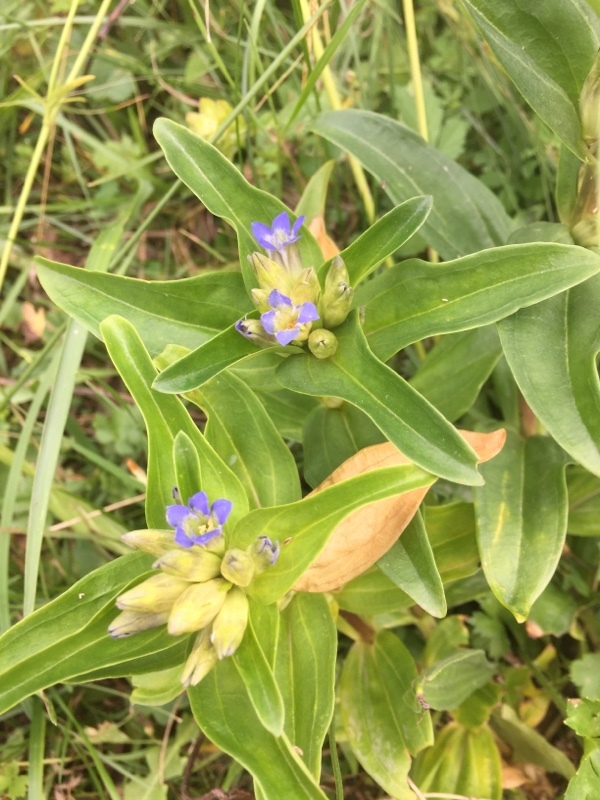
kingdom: Plantae
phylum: Tracheophyta
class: Magnoliopsida
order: Gentianales
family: Gentianaceae
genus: Gentiana
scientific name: Gentiana cruciata
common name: Cross gentian
